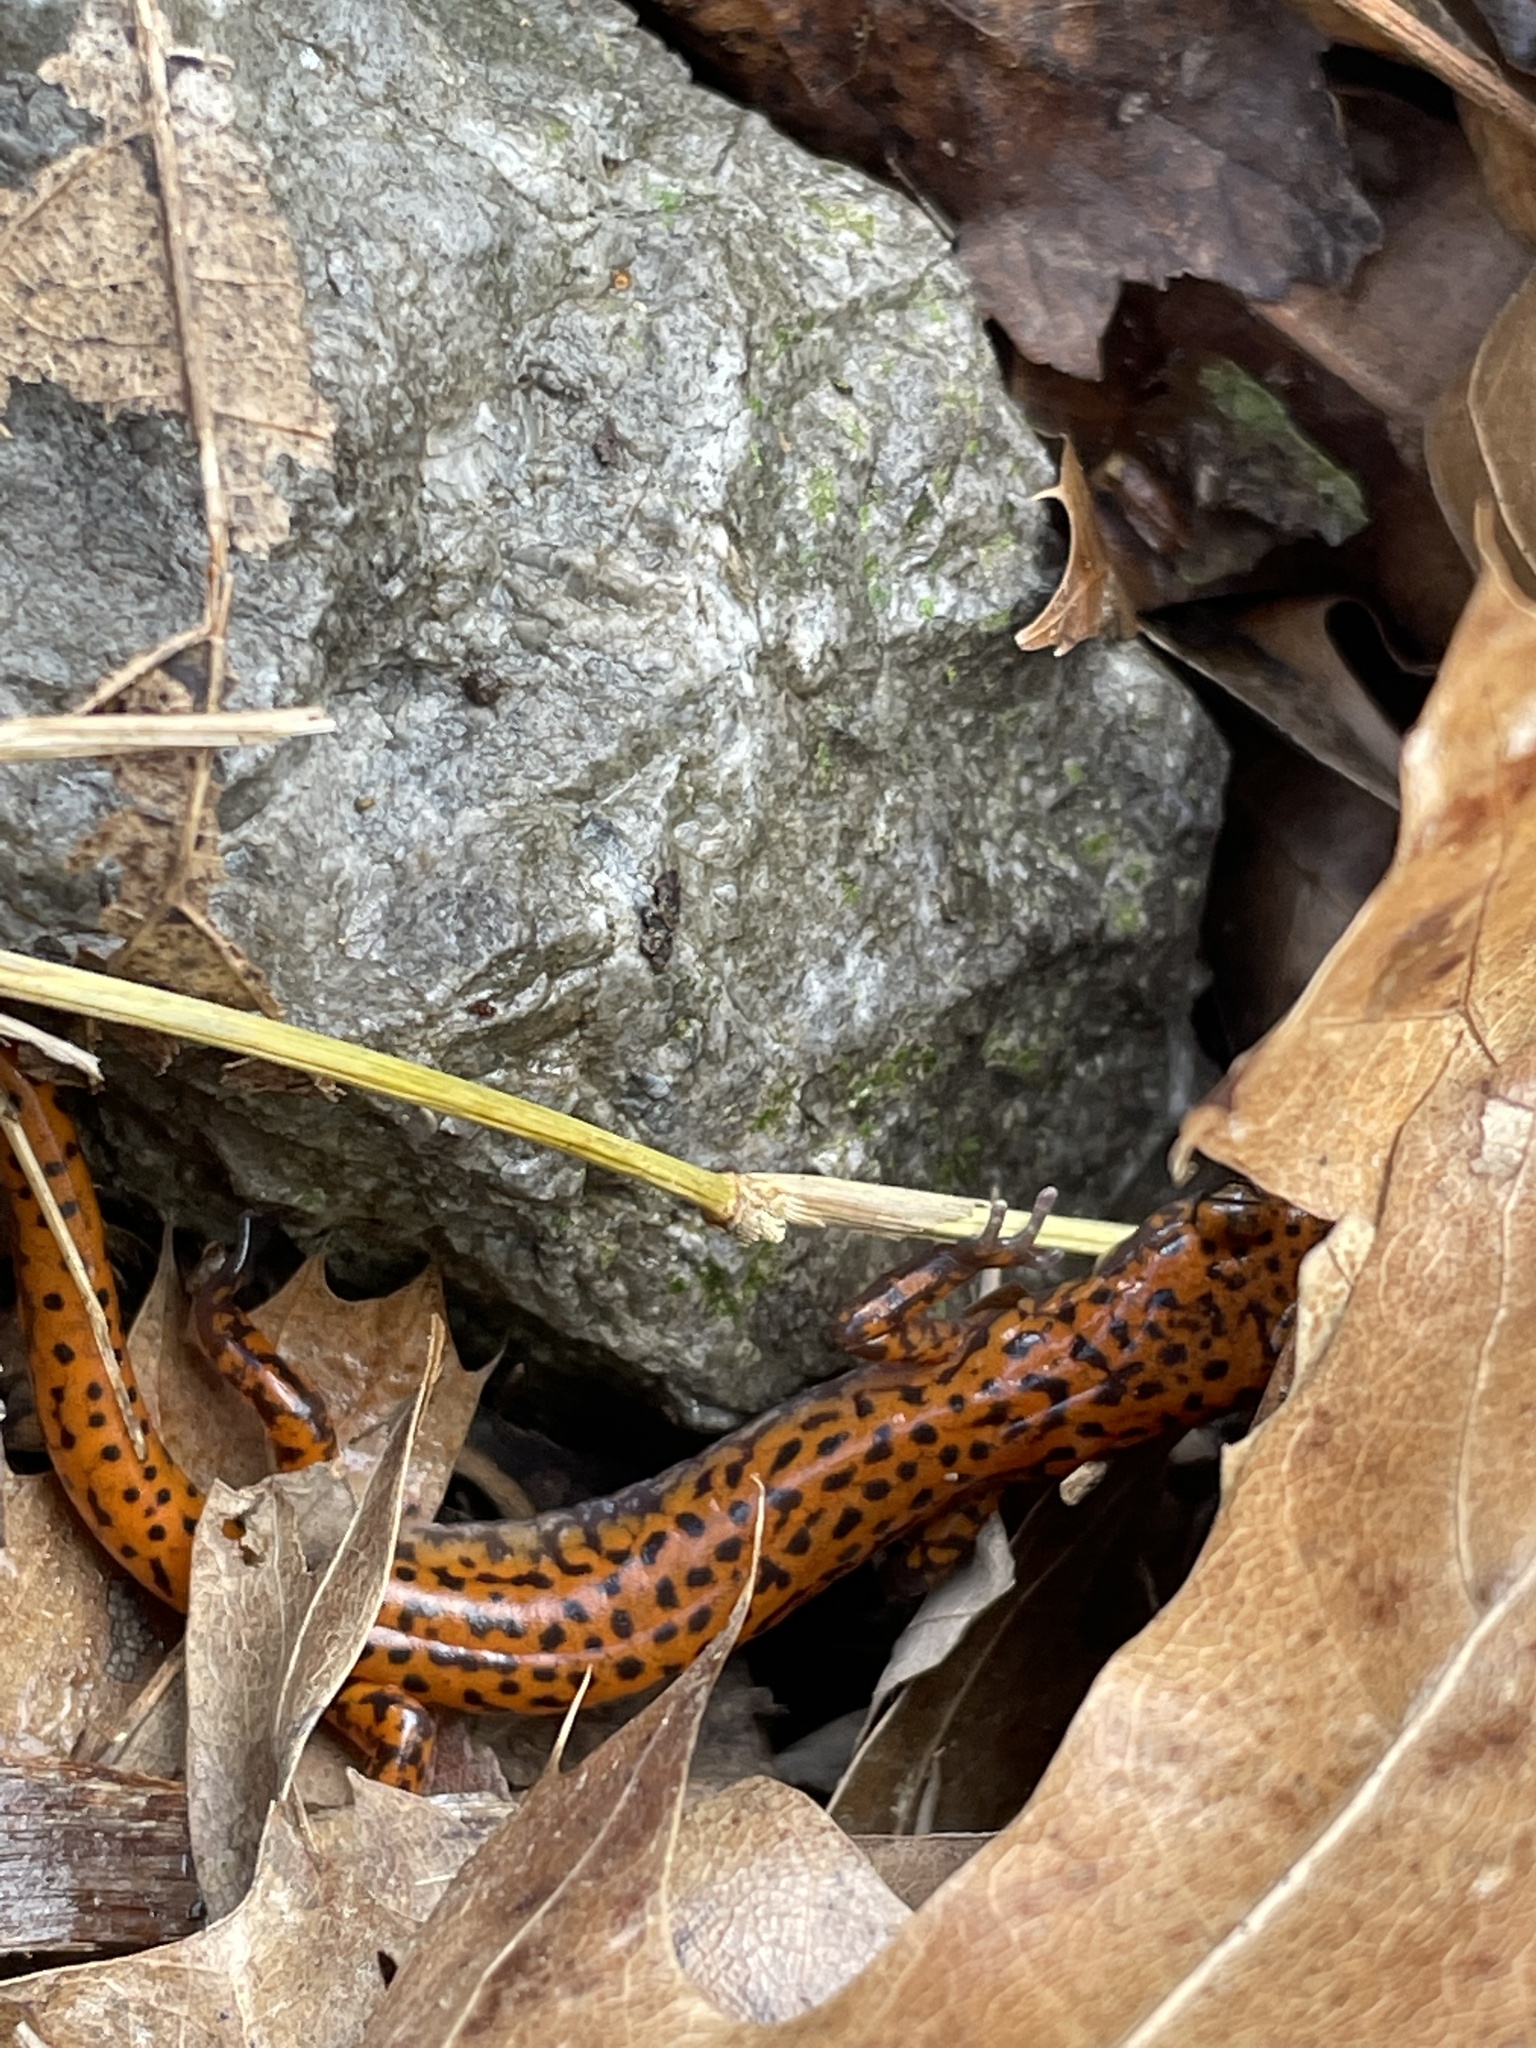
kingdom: Animalia
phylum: Chordata
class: Amphibia
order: Caudata
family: Plethodontidae
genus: Eurycea
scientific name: Eurycea lucifuga
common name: Cave salamander
